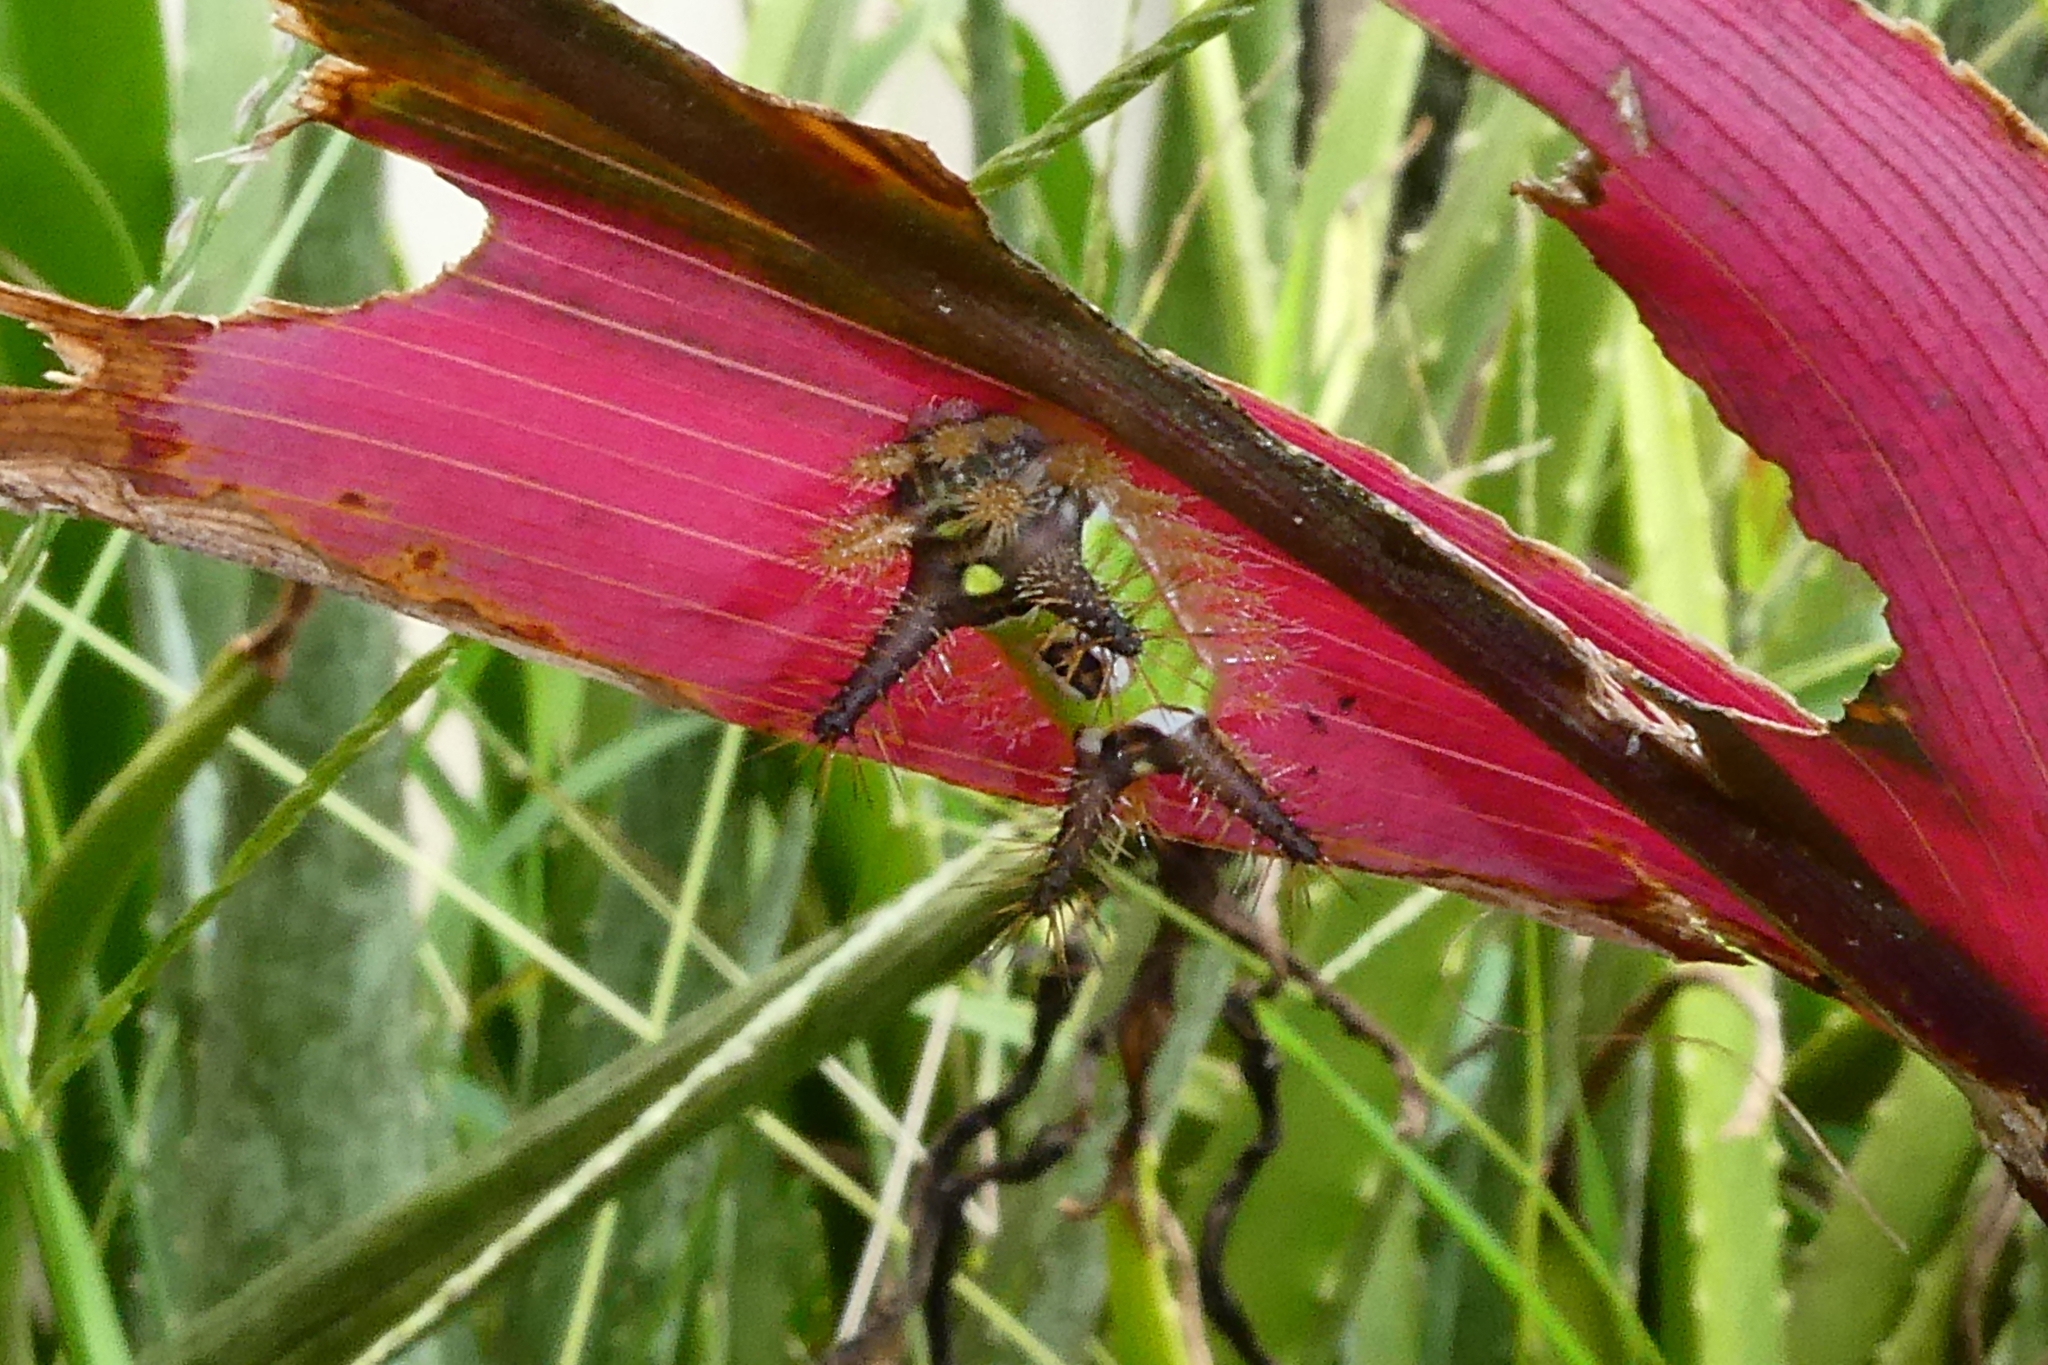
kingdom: Animalia
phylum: Arthropoda
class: Insecta
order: Lepidoptera
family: Limacodidae
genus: Acharia
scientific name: Acharia sarans
